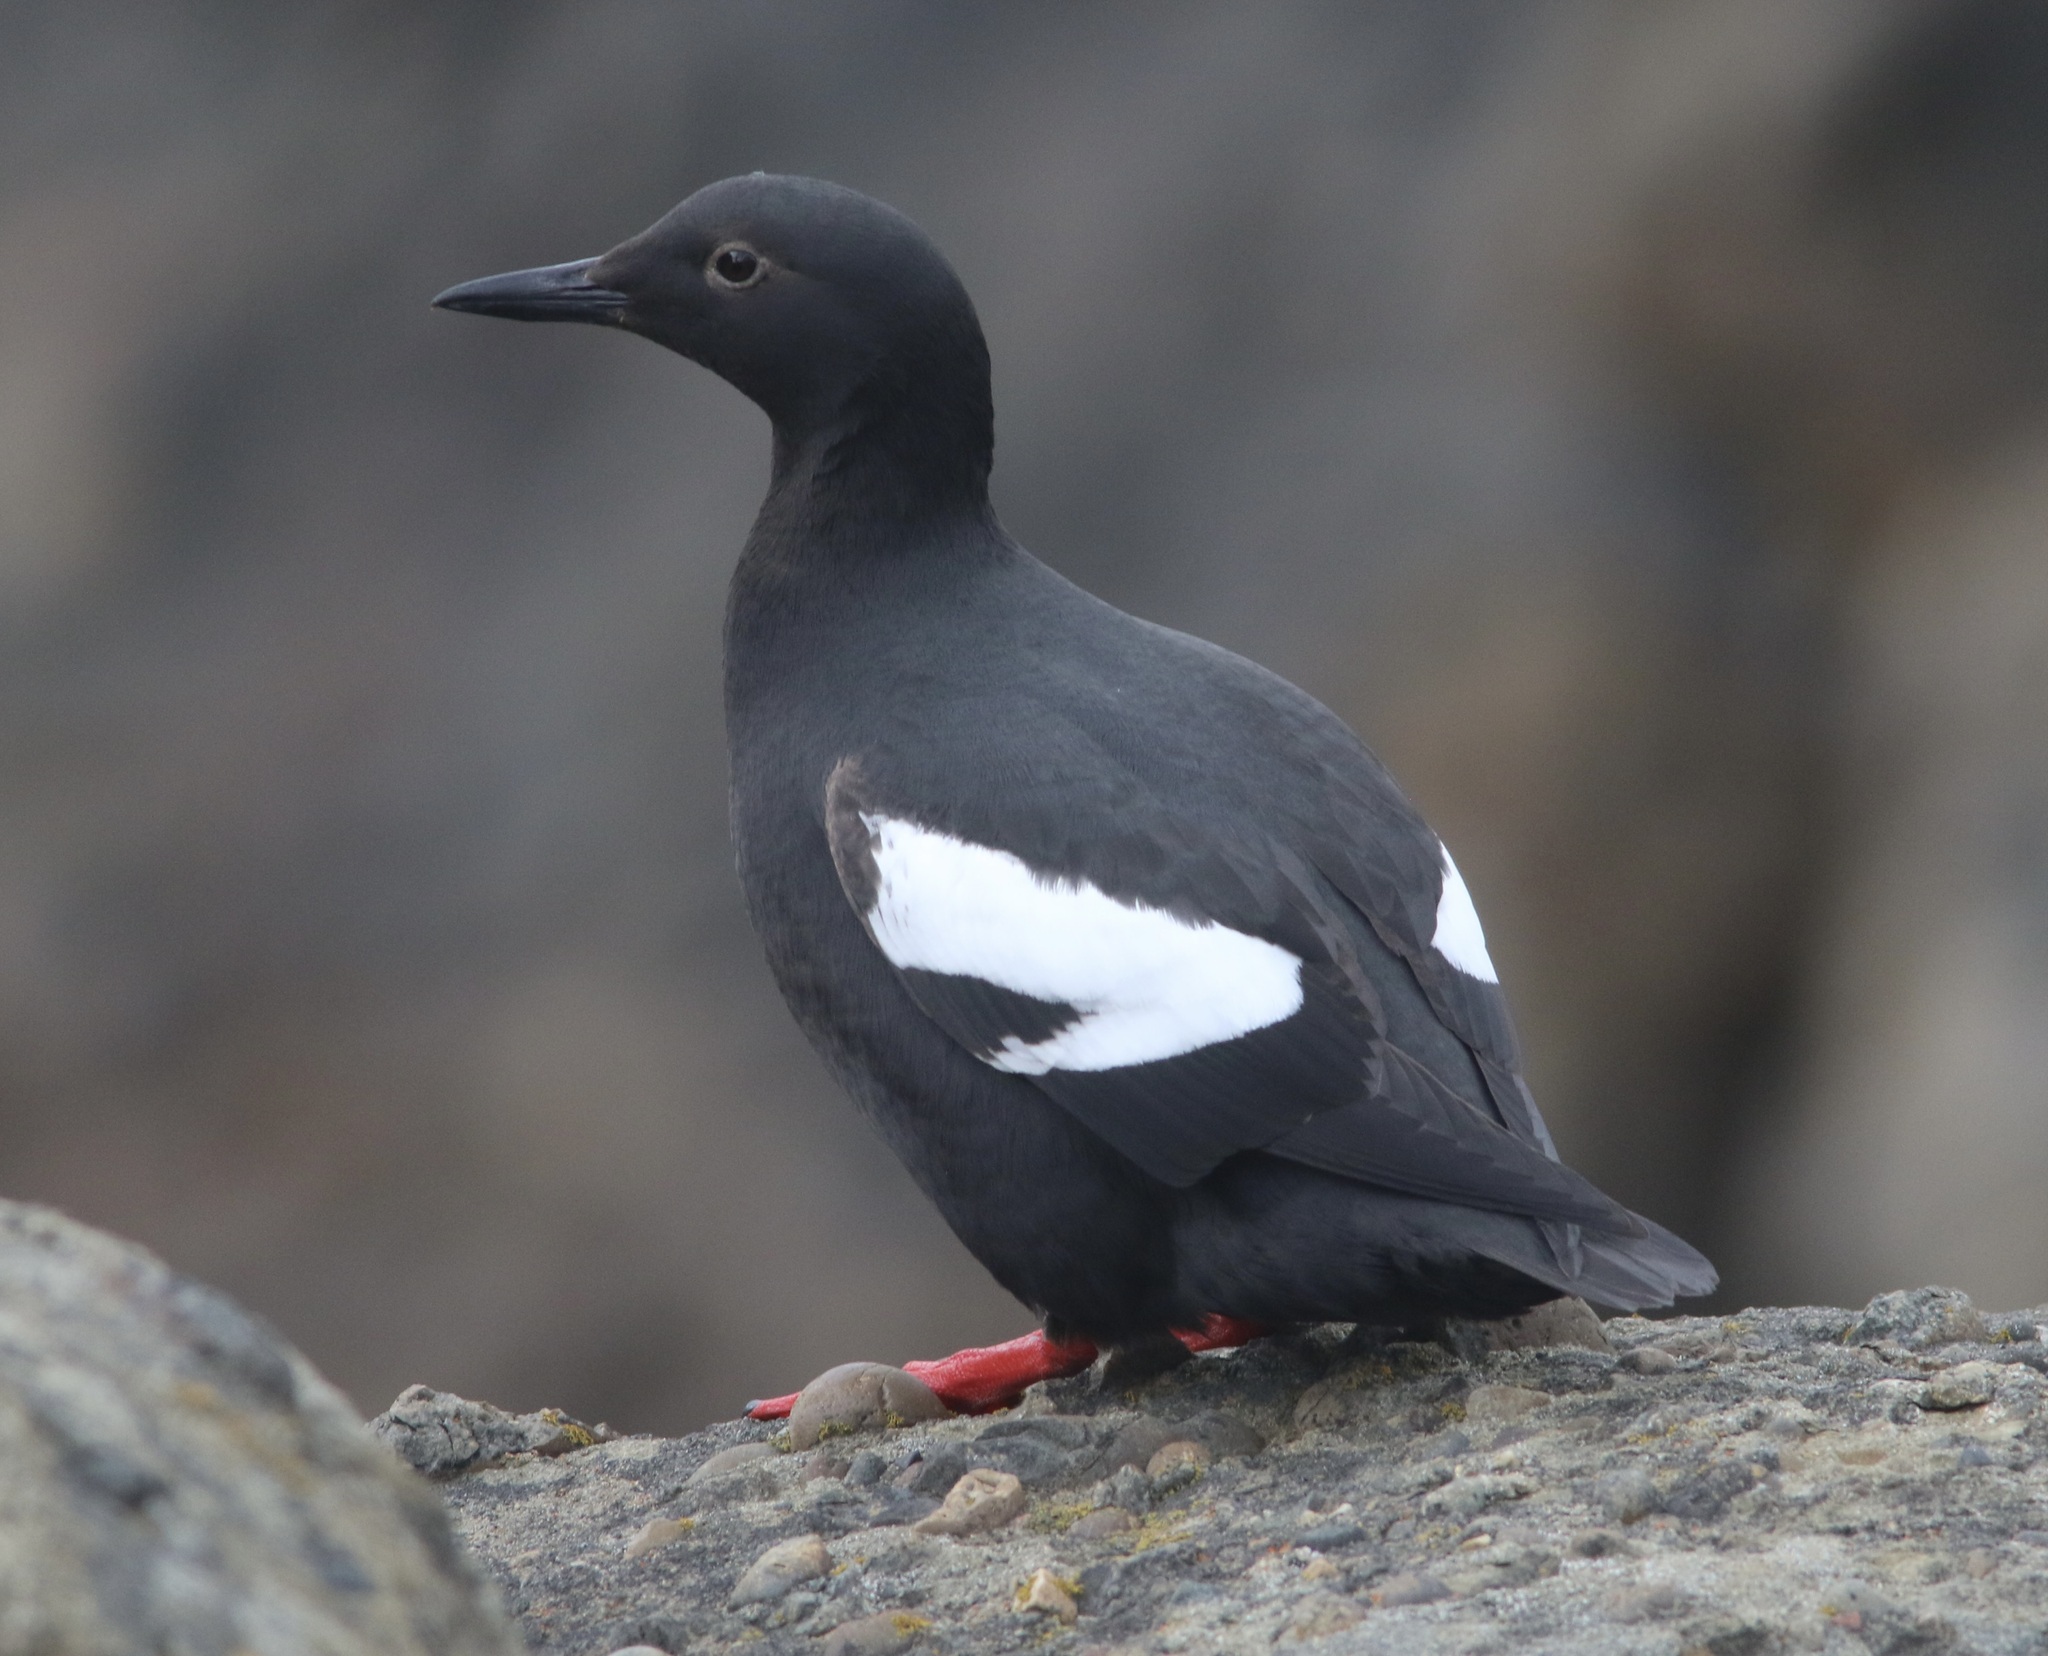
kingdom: Animalia
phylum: Chordata
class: Aves
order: Charadriiformes
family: Alcidae
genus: Cepphus
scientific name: Cepphus columba
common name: Pigeon guillemot
